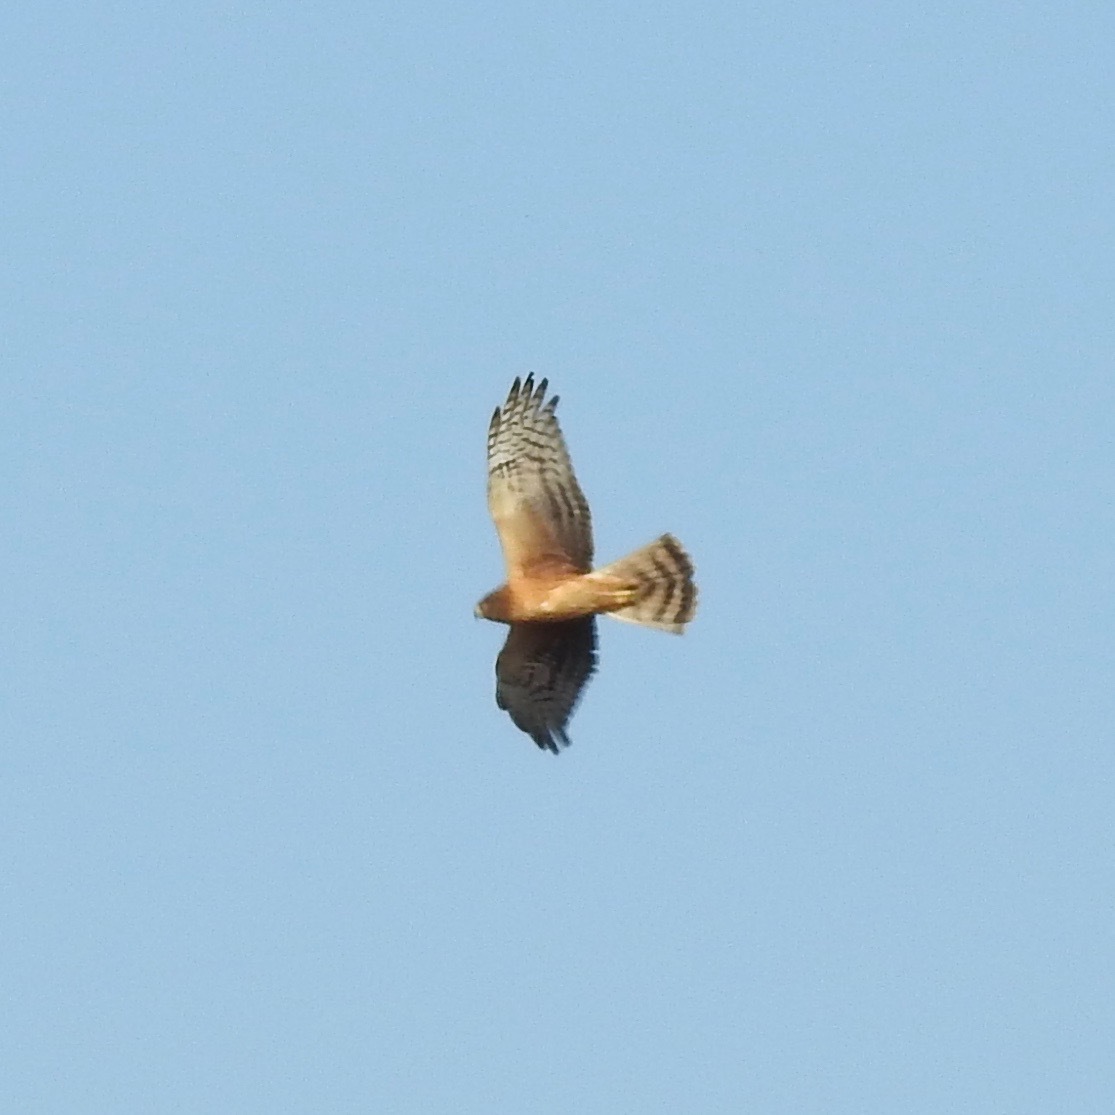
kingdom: Animalia
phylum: Chordata
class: Aves
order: Accipitriformes
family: Accipitridae
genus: Circus
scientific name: Circus cyaneus
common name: Hen harrier
